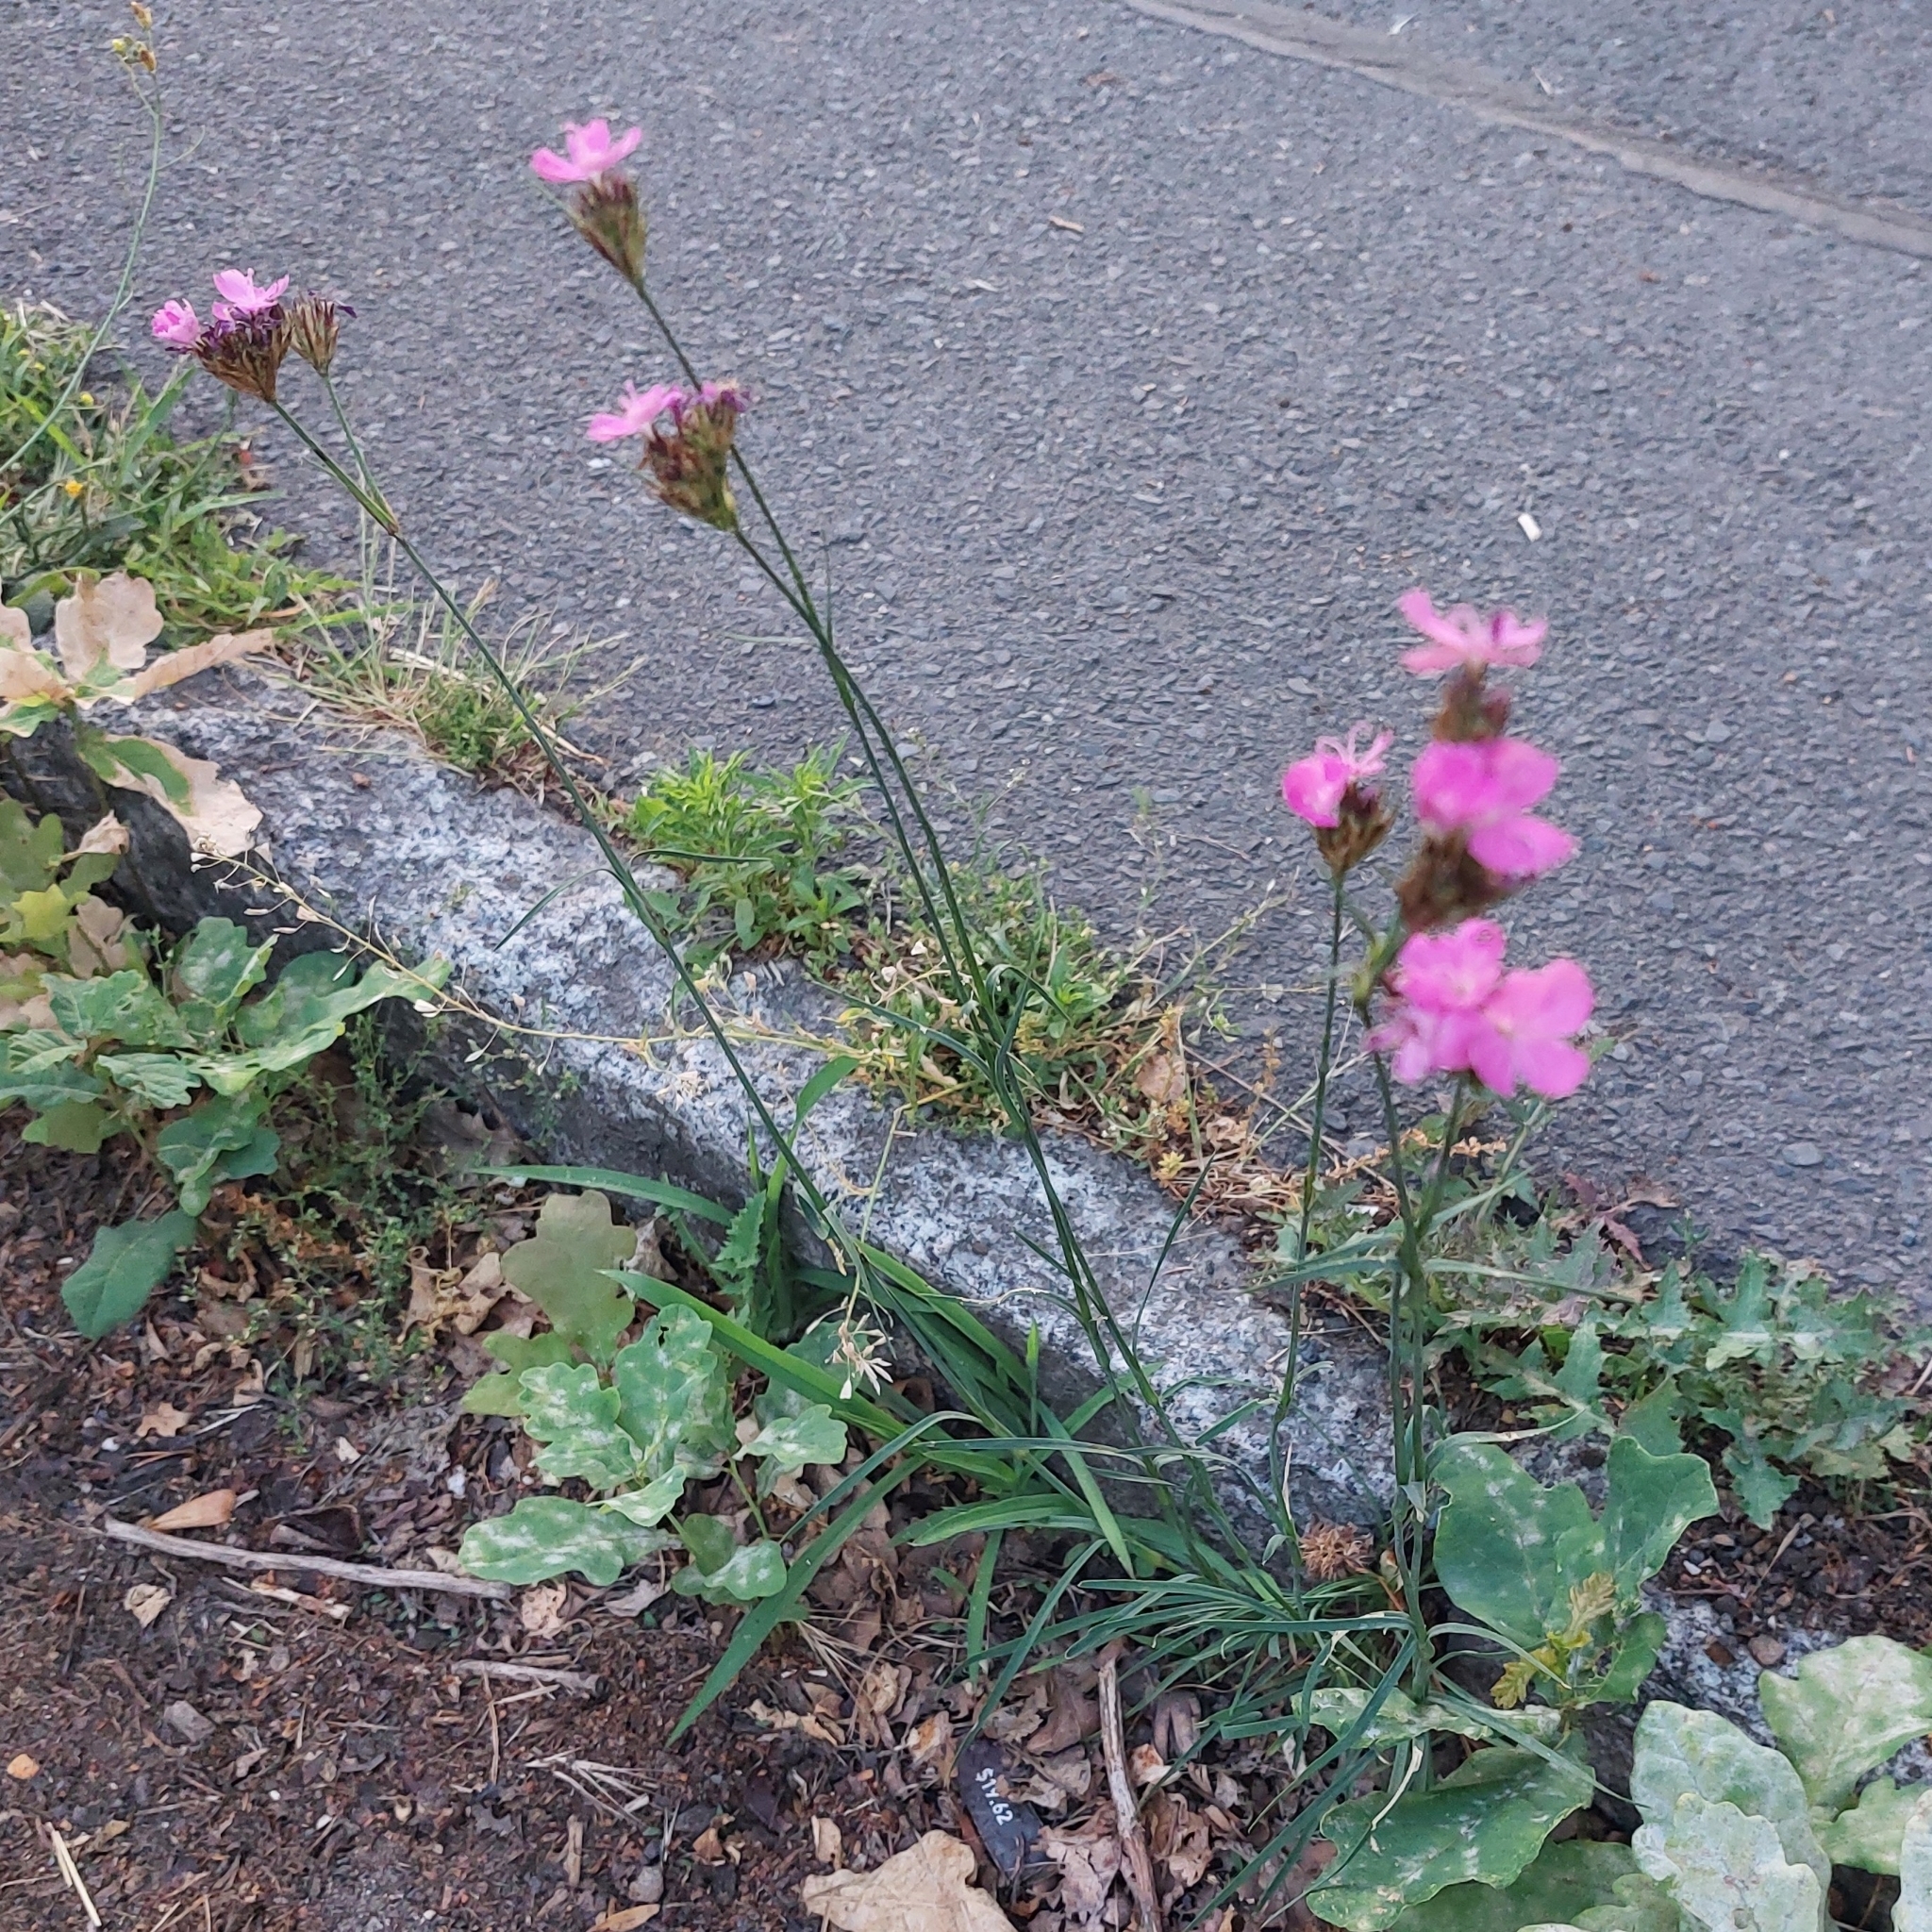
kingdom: Plantae
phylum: Tracheophyta
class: Magnoliopsida
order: Caryophyllales
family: Caryophyllaceae
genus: Dianthus
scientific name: Dianthus carthusianorum
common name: Carthusian pink
